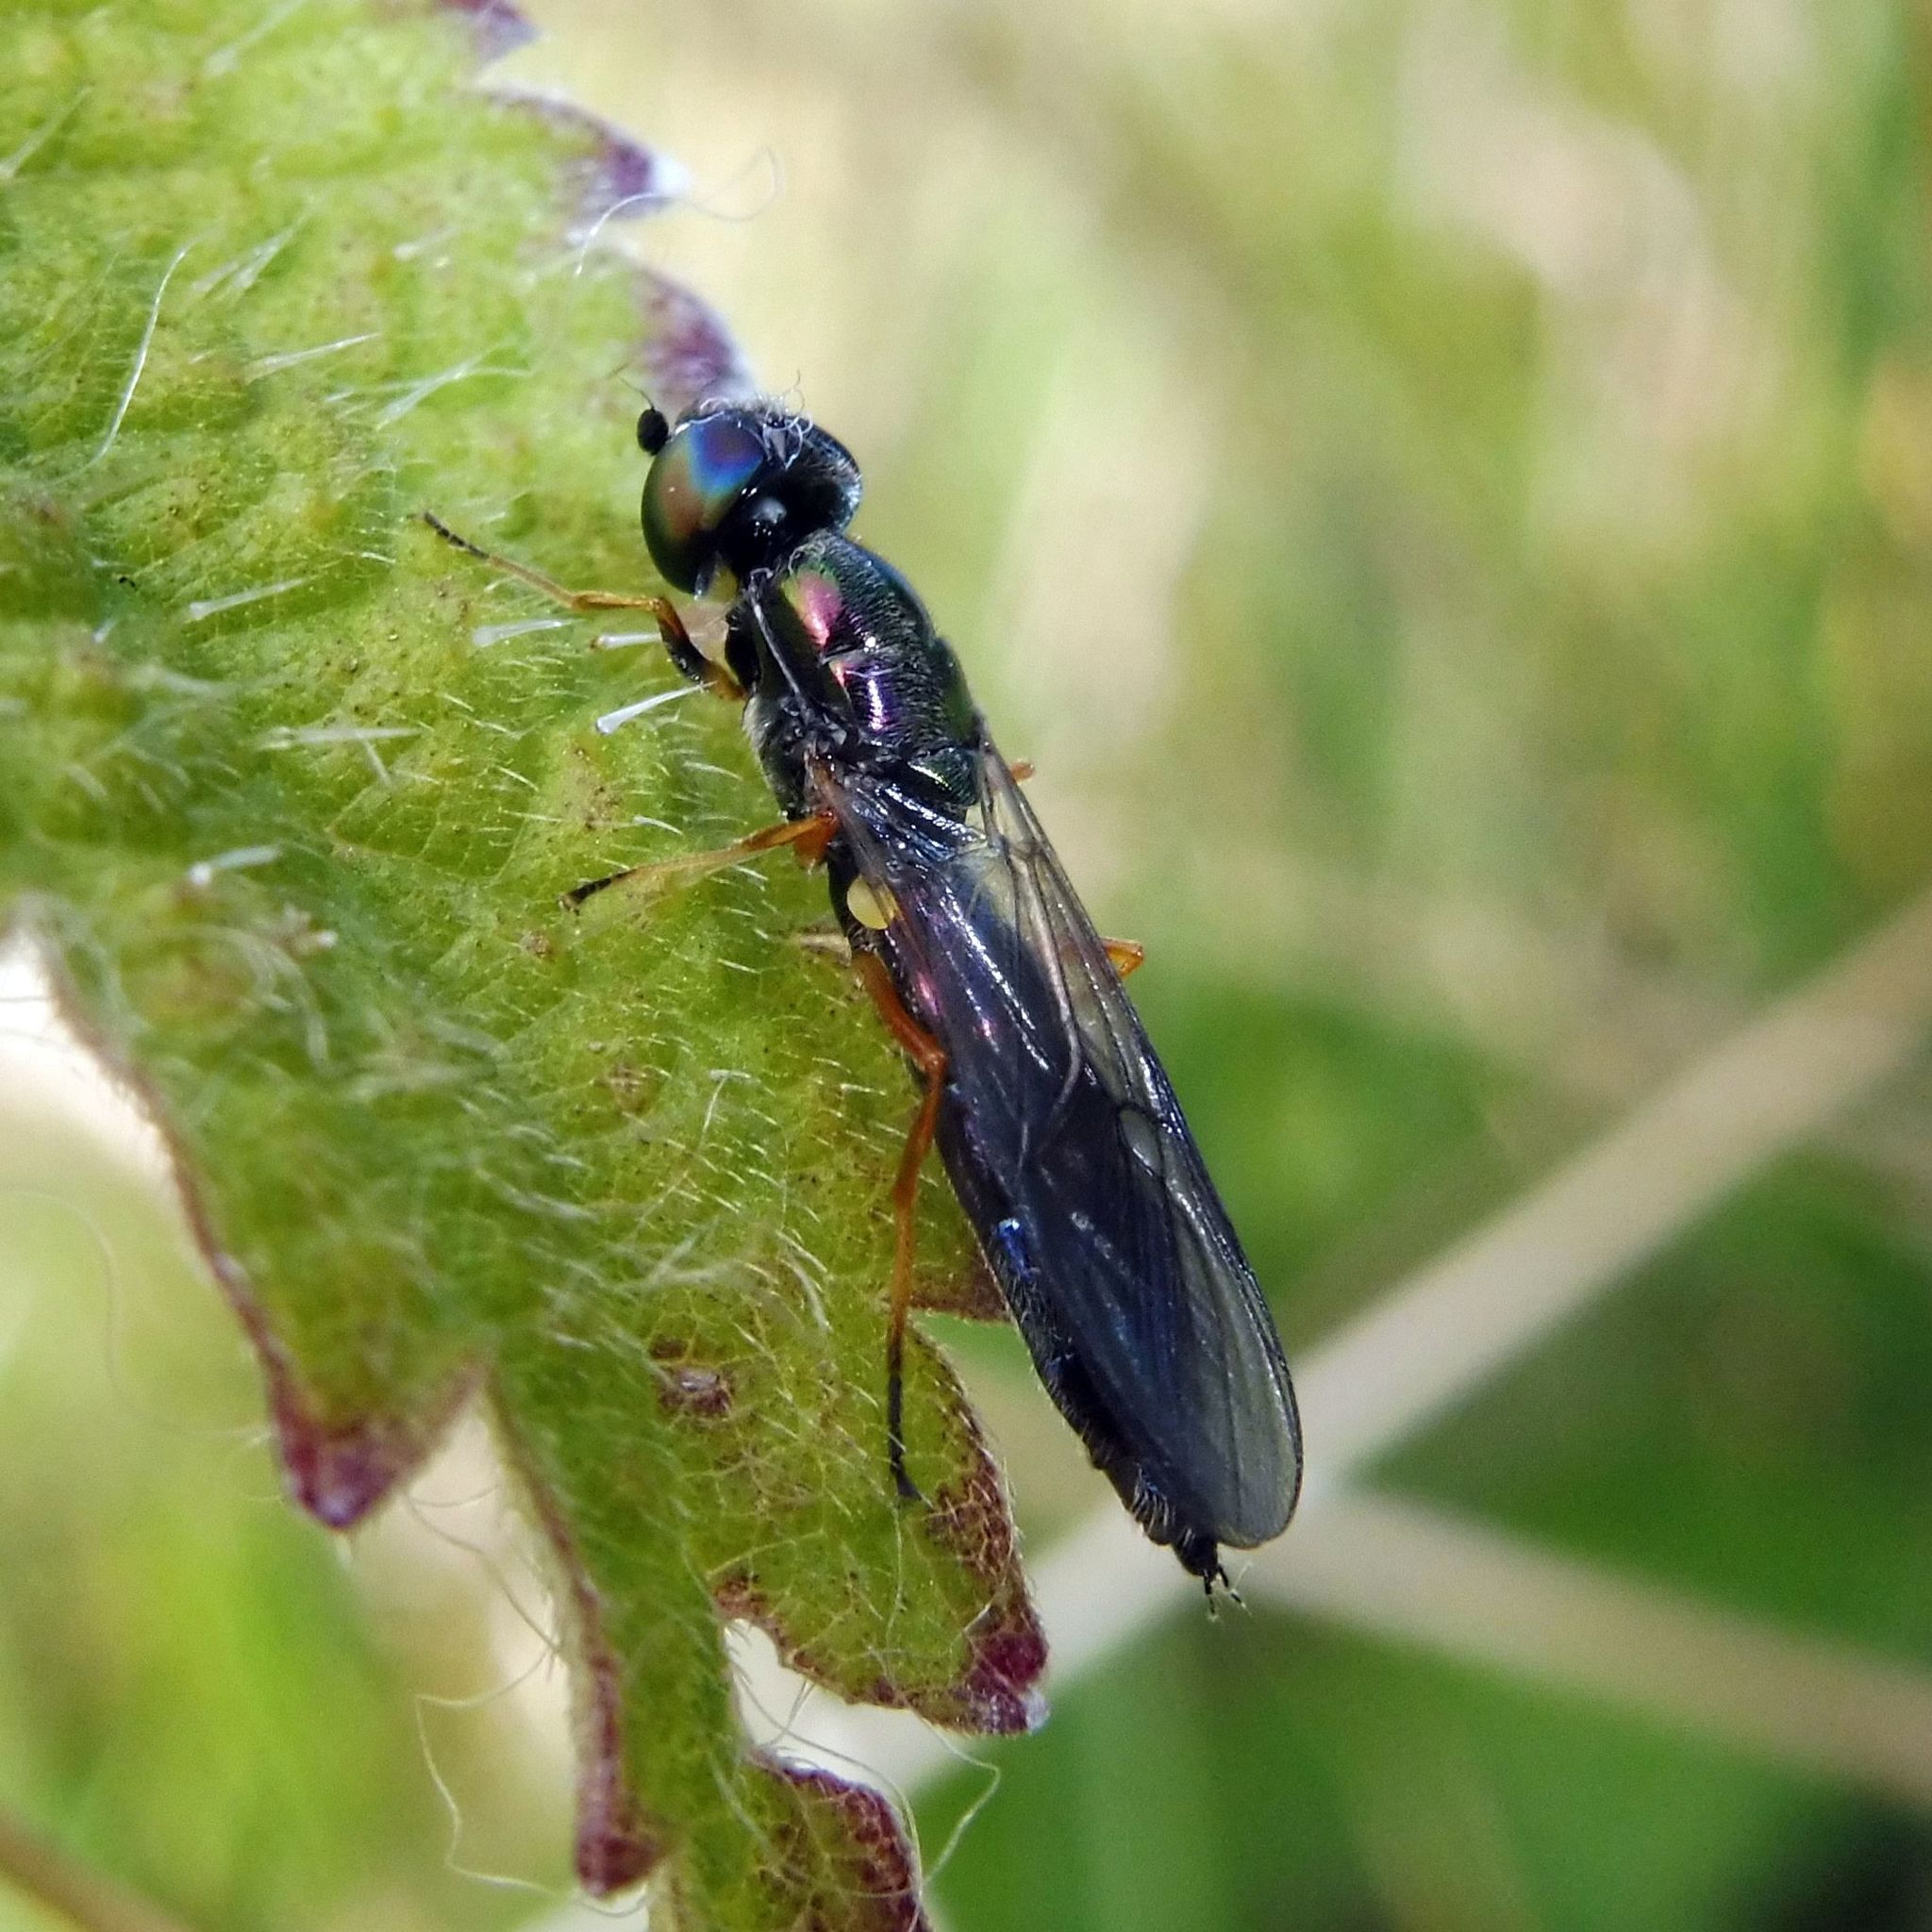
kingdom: Animalia
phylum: Arthropoda
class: Insecta
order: Diptera
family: Stratiomyidae
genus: Sargus
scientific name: Sargus flavipes
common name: Yellow-legged centurion
